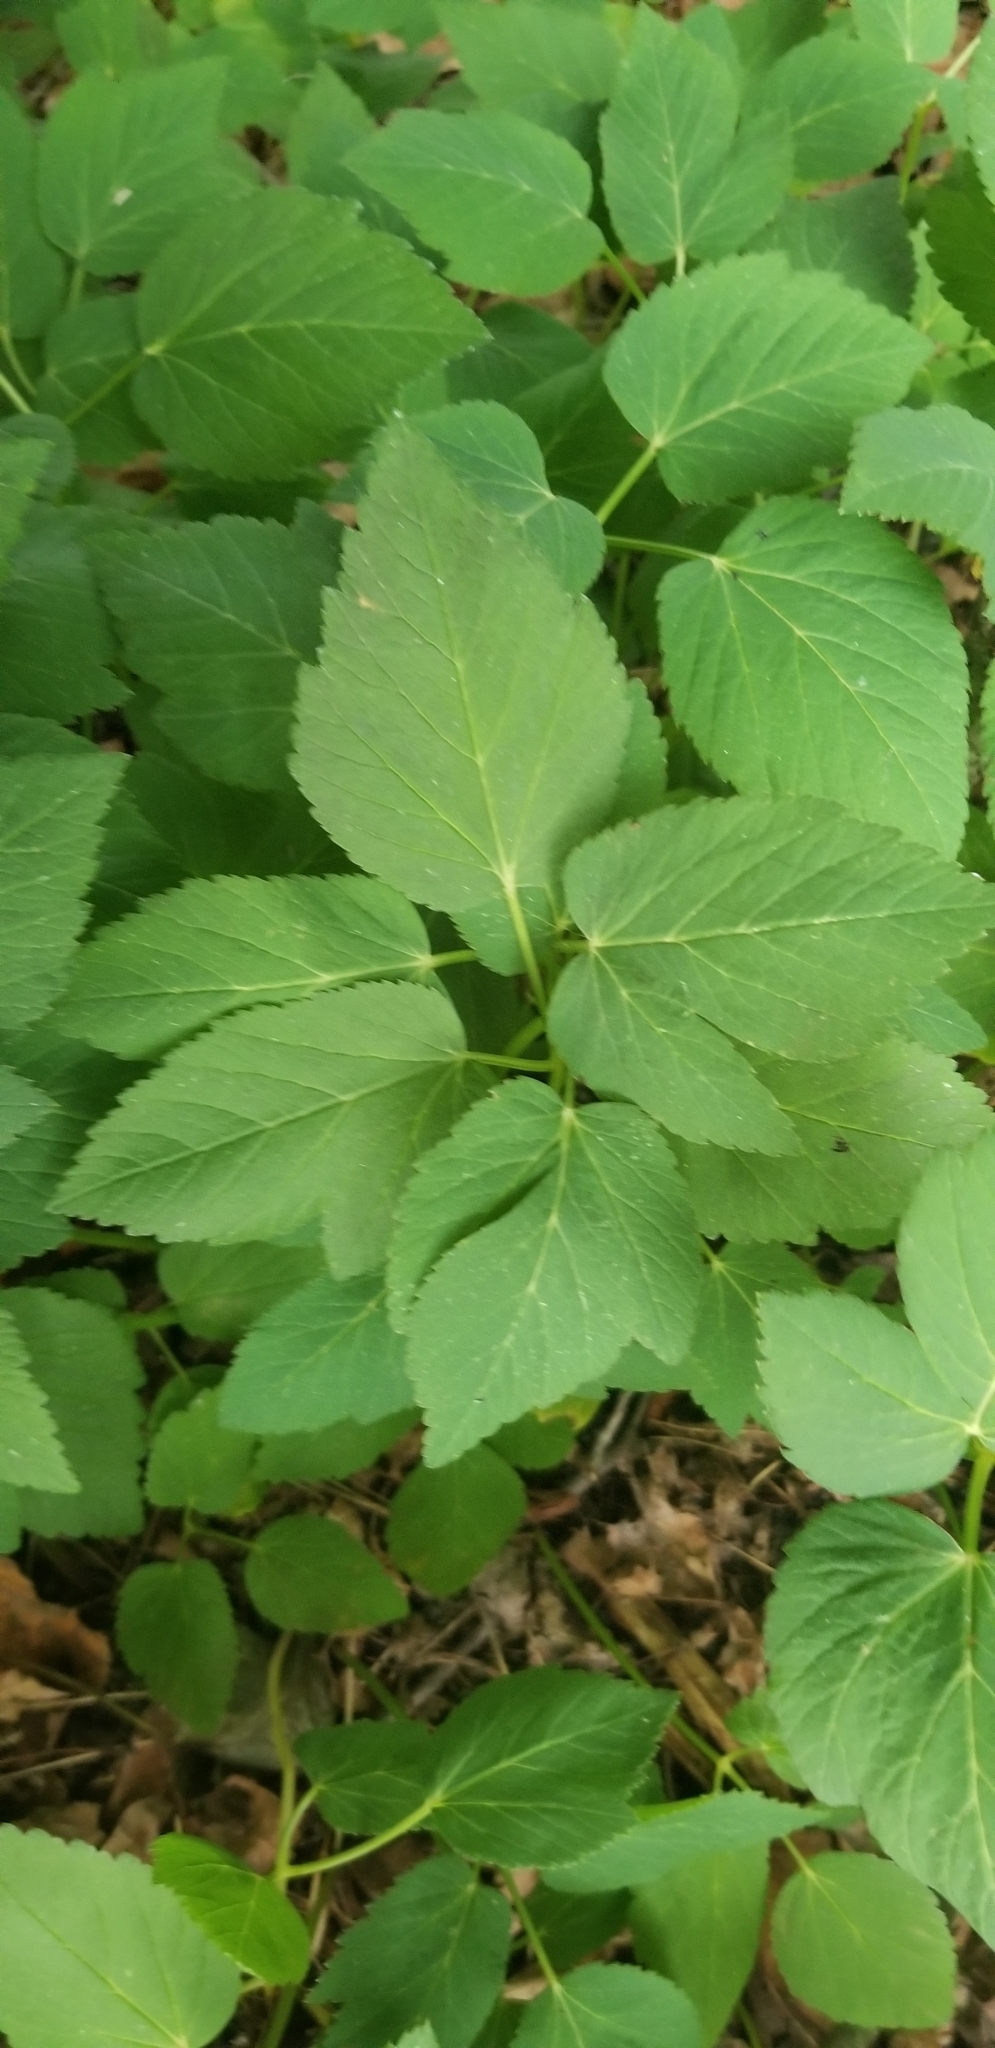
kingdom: Plantae
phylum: Tracheophyta
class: Magnoliopsida
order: Apiales
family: Apiaceae
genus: Aegopodium
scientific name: Aegopodium podagraria
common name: Ground-elder
